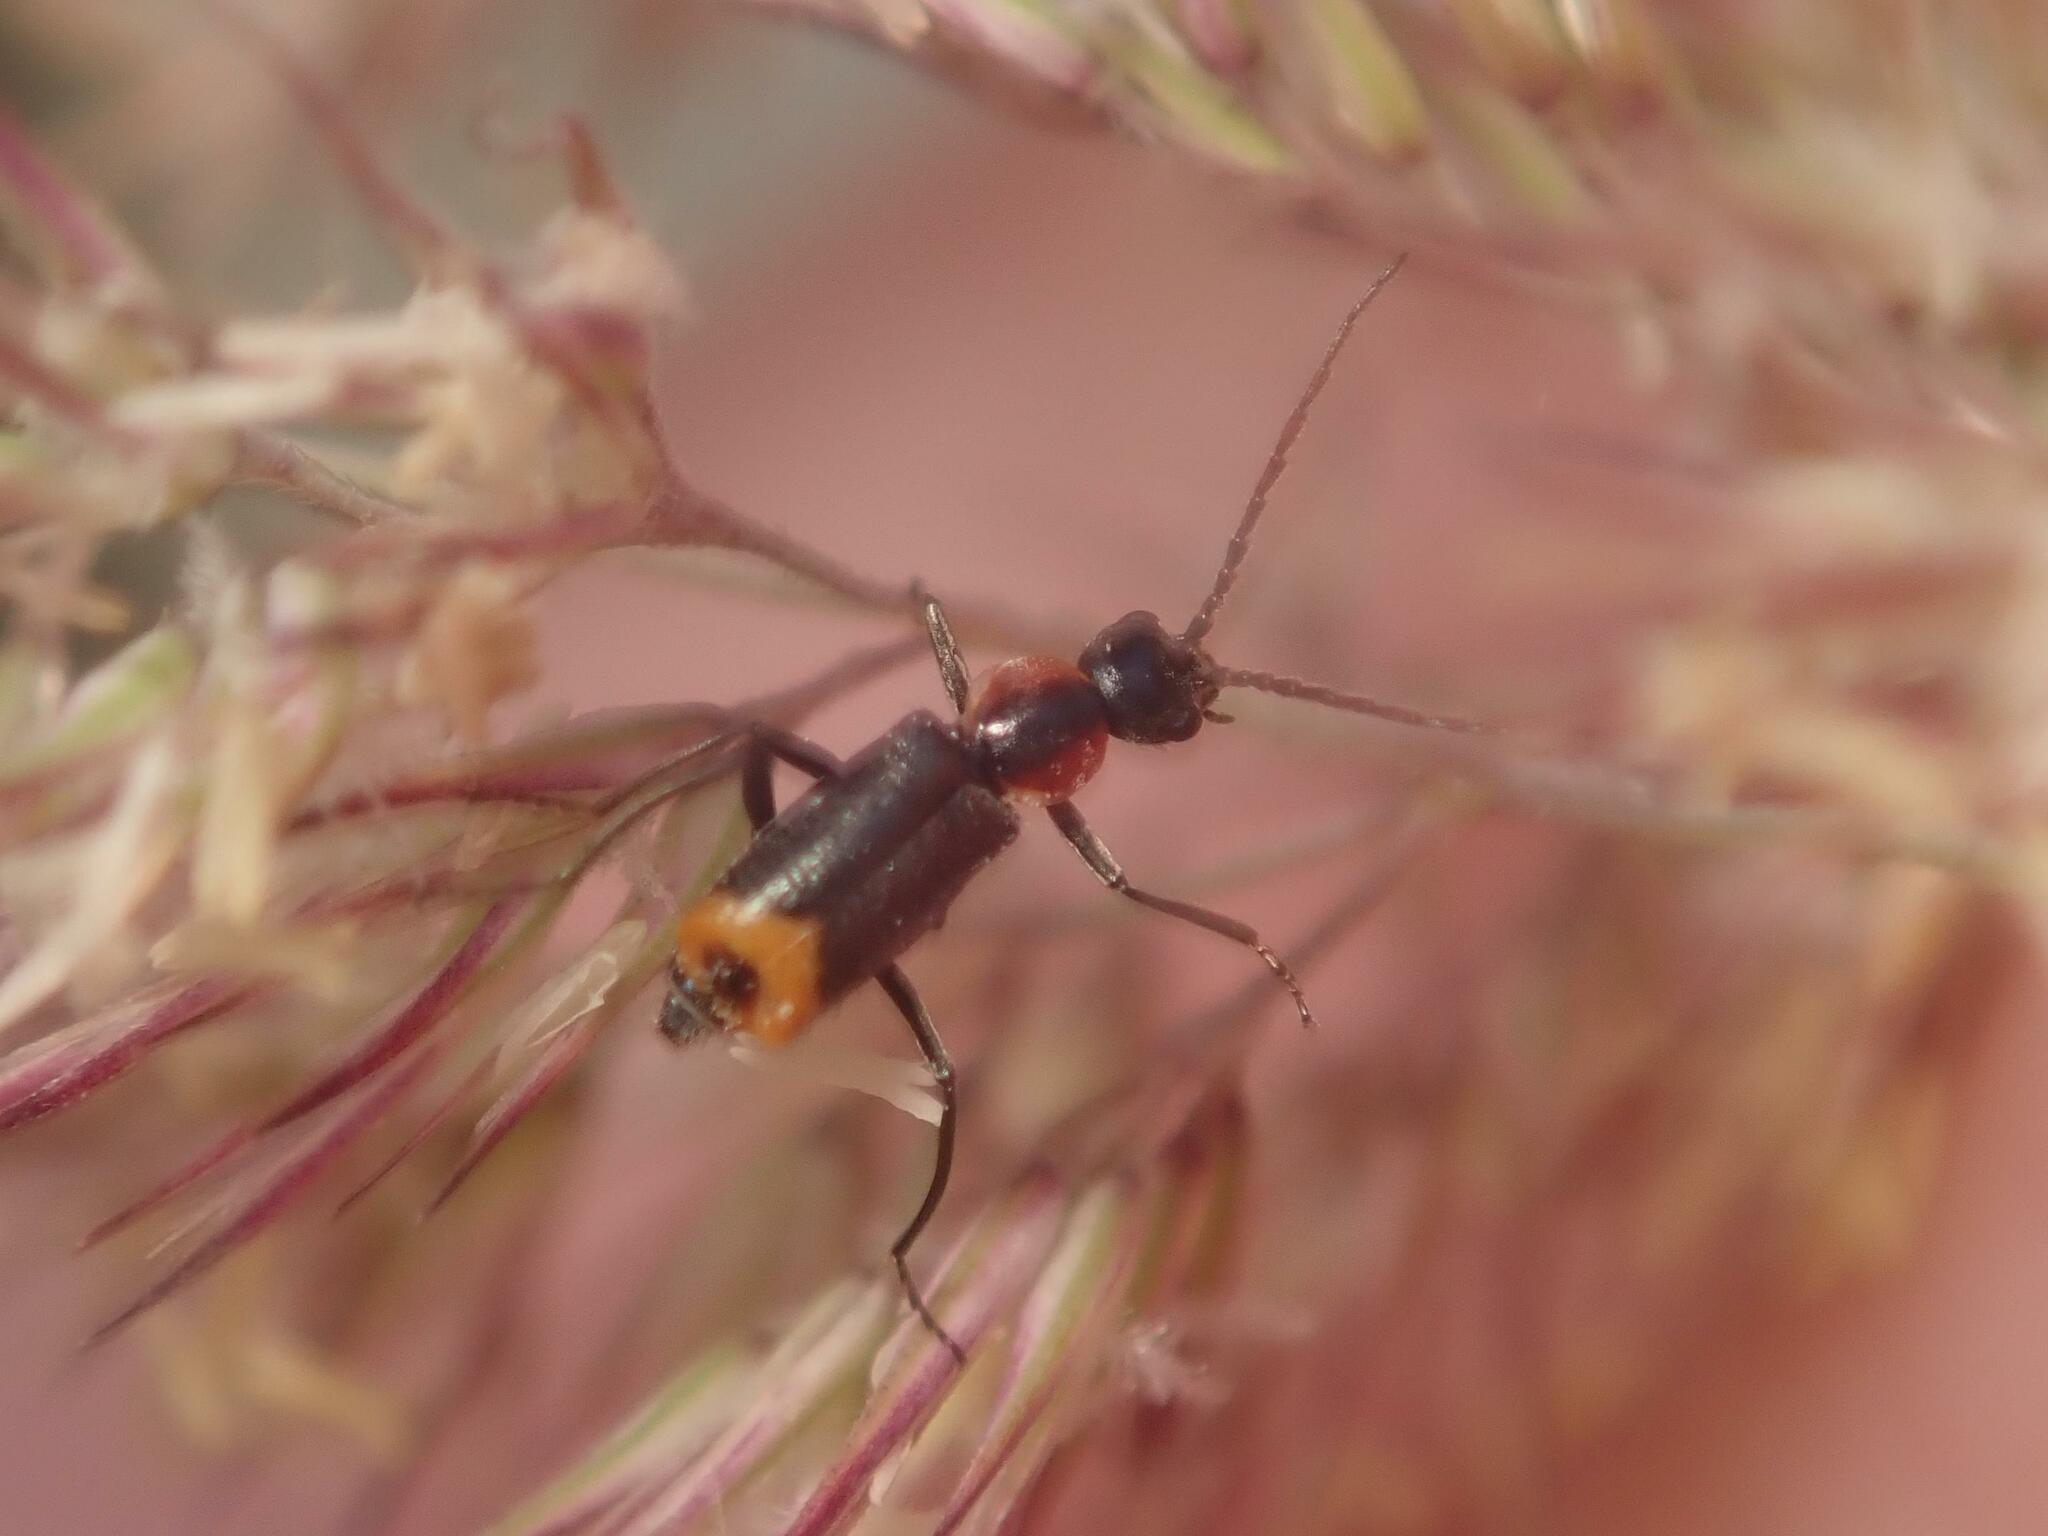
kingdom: Animalia
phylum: Arthropoda
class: Insecta
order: Coleoptera
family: Melyridae
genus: Axinotarsus
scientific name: Axinotarsus pulicarius
